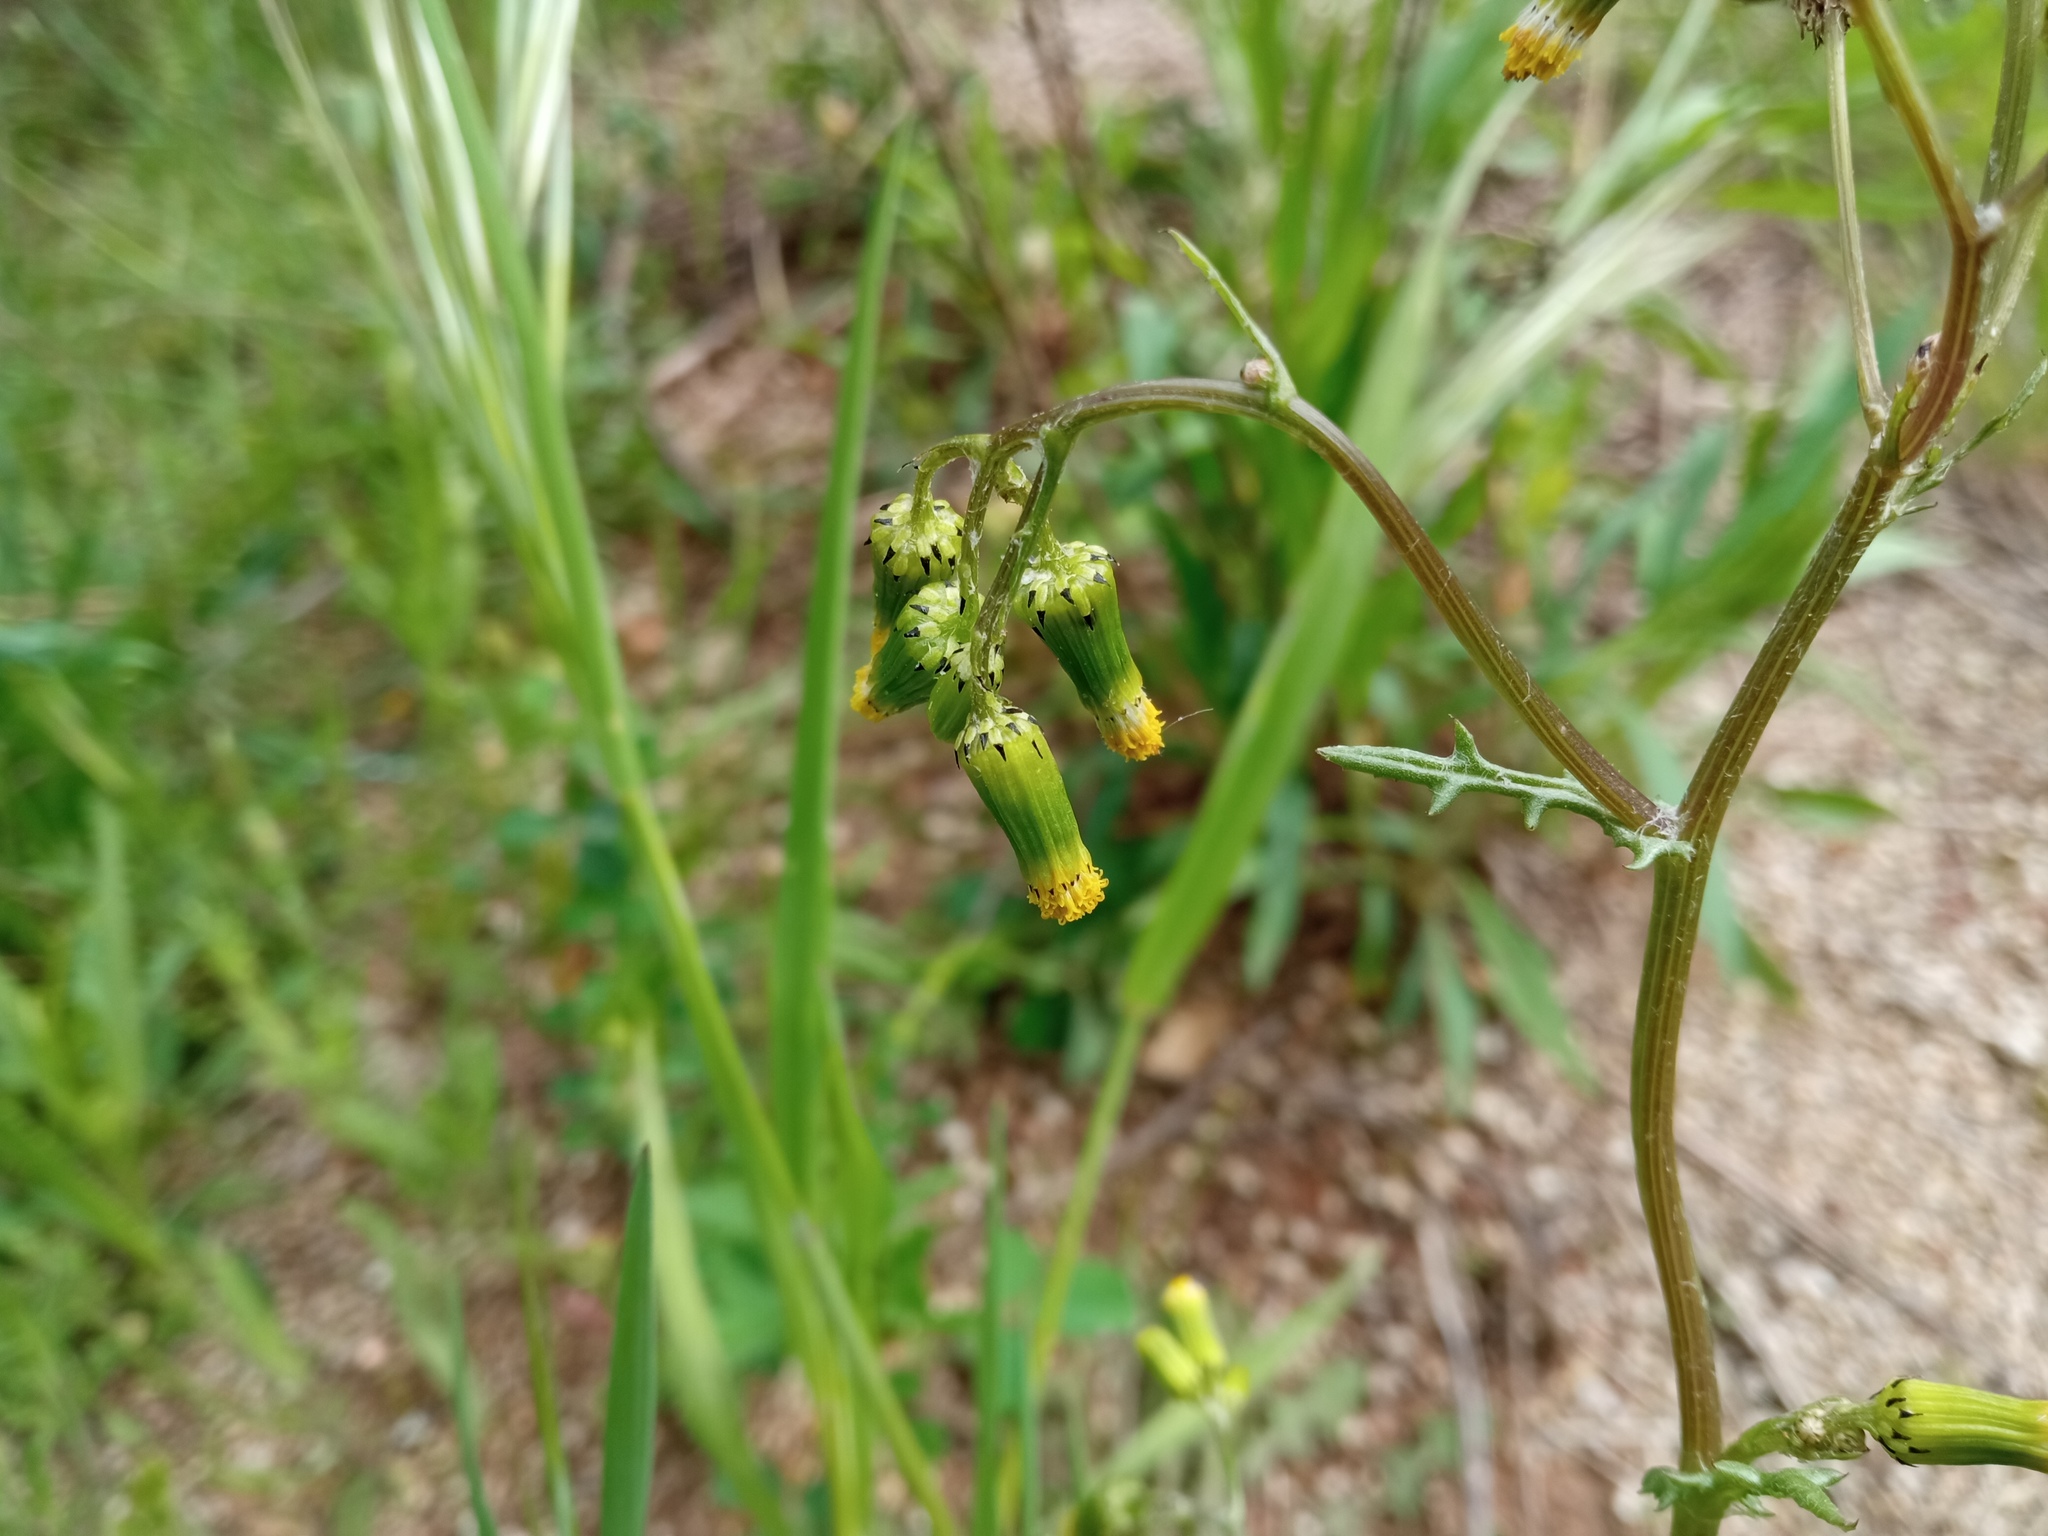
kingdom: Plantae
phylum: Tracheophyta
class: Magnoliopsida
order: Asterales
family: Asteraceae
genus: Senecio
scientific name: Senecio vulgaris
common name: Old-man-in-the-spring
